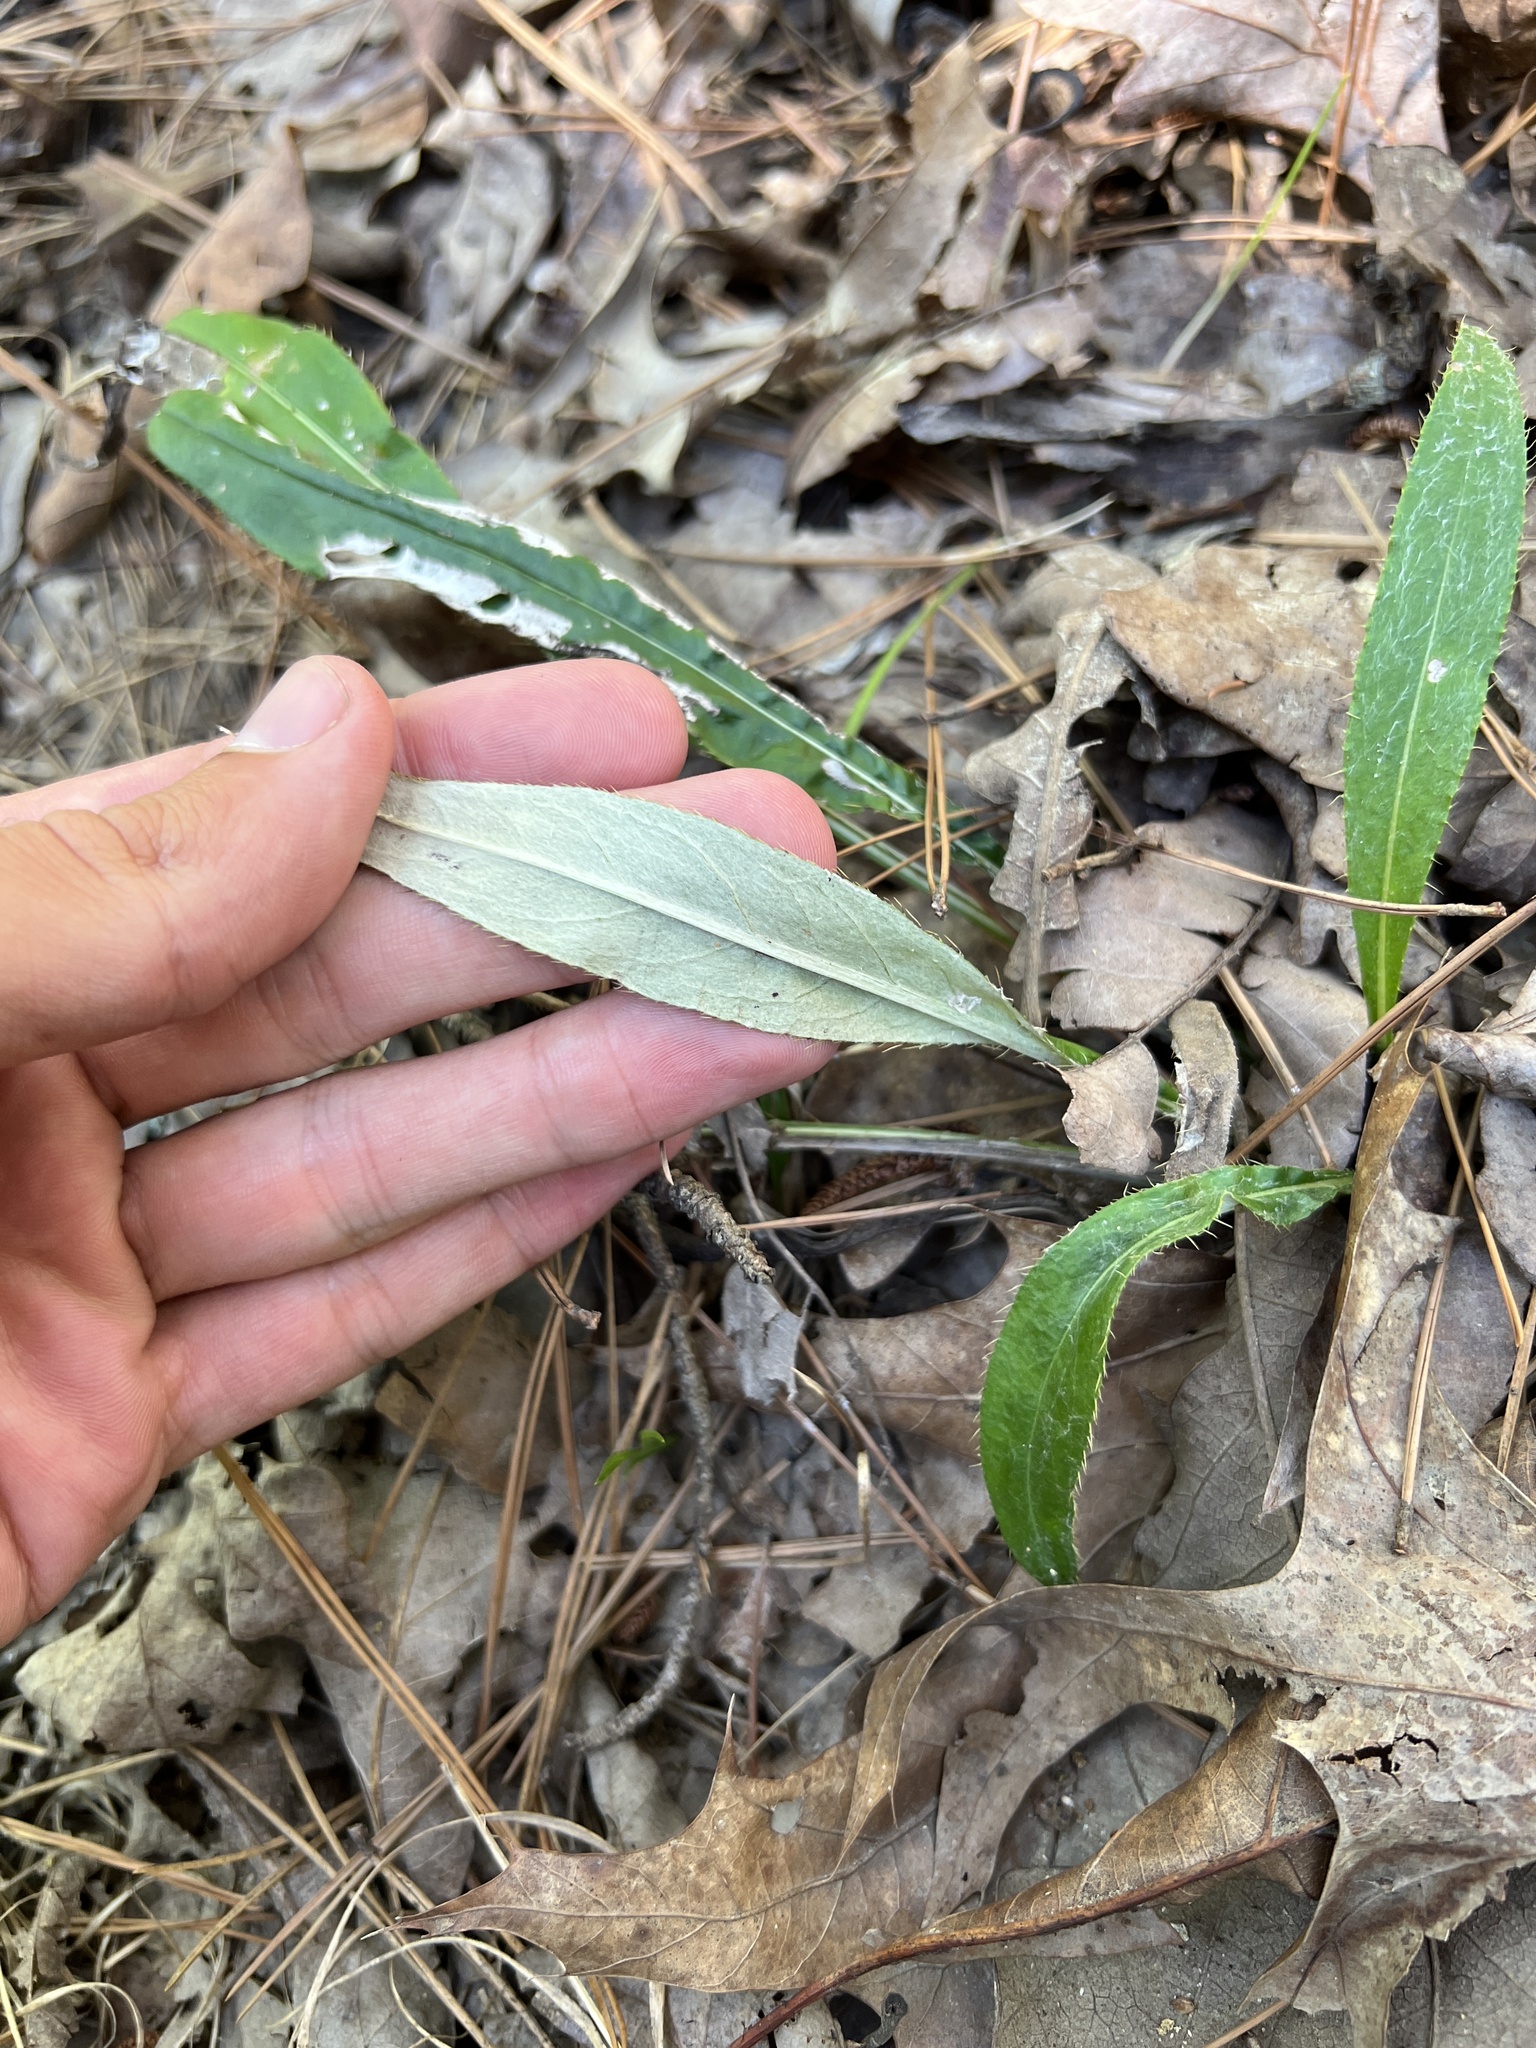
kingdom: Plantae
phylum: Tracheophyta
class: Magnoliopsida
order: Asterales
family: Asteraceae
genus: Cirsium
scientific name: Cirsium carolinianum
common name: Carolina thistle
